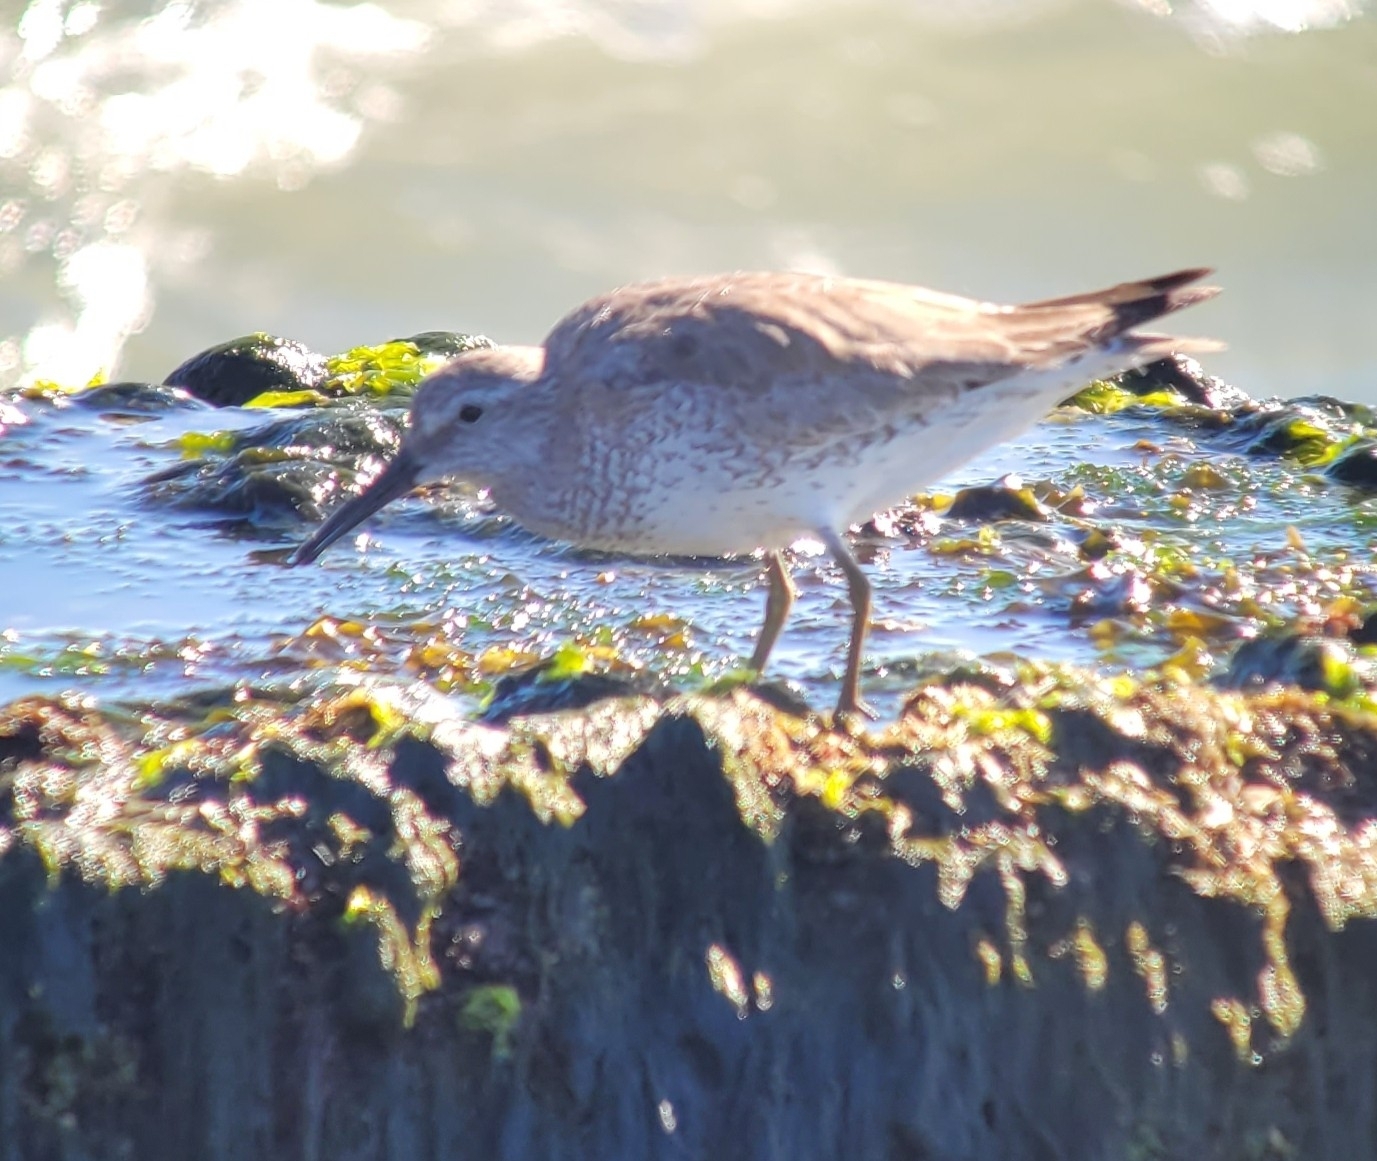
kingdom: Animalia
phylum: Chordata
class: Aves
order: Charadriiformes
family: Scolopacidae
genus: Calidris
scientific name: Calidris canutus
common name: Red knot
